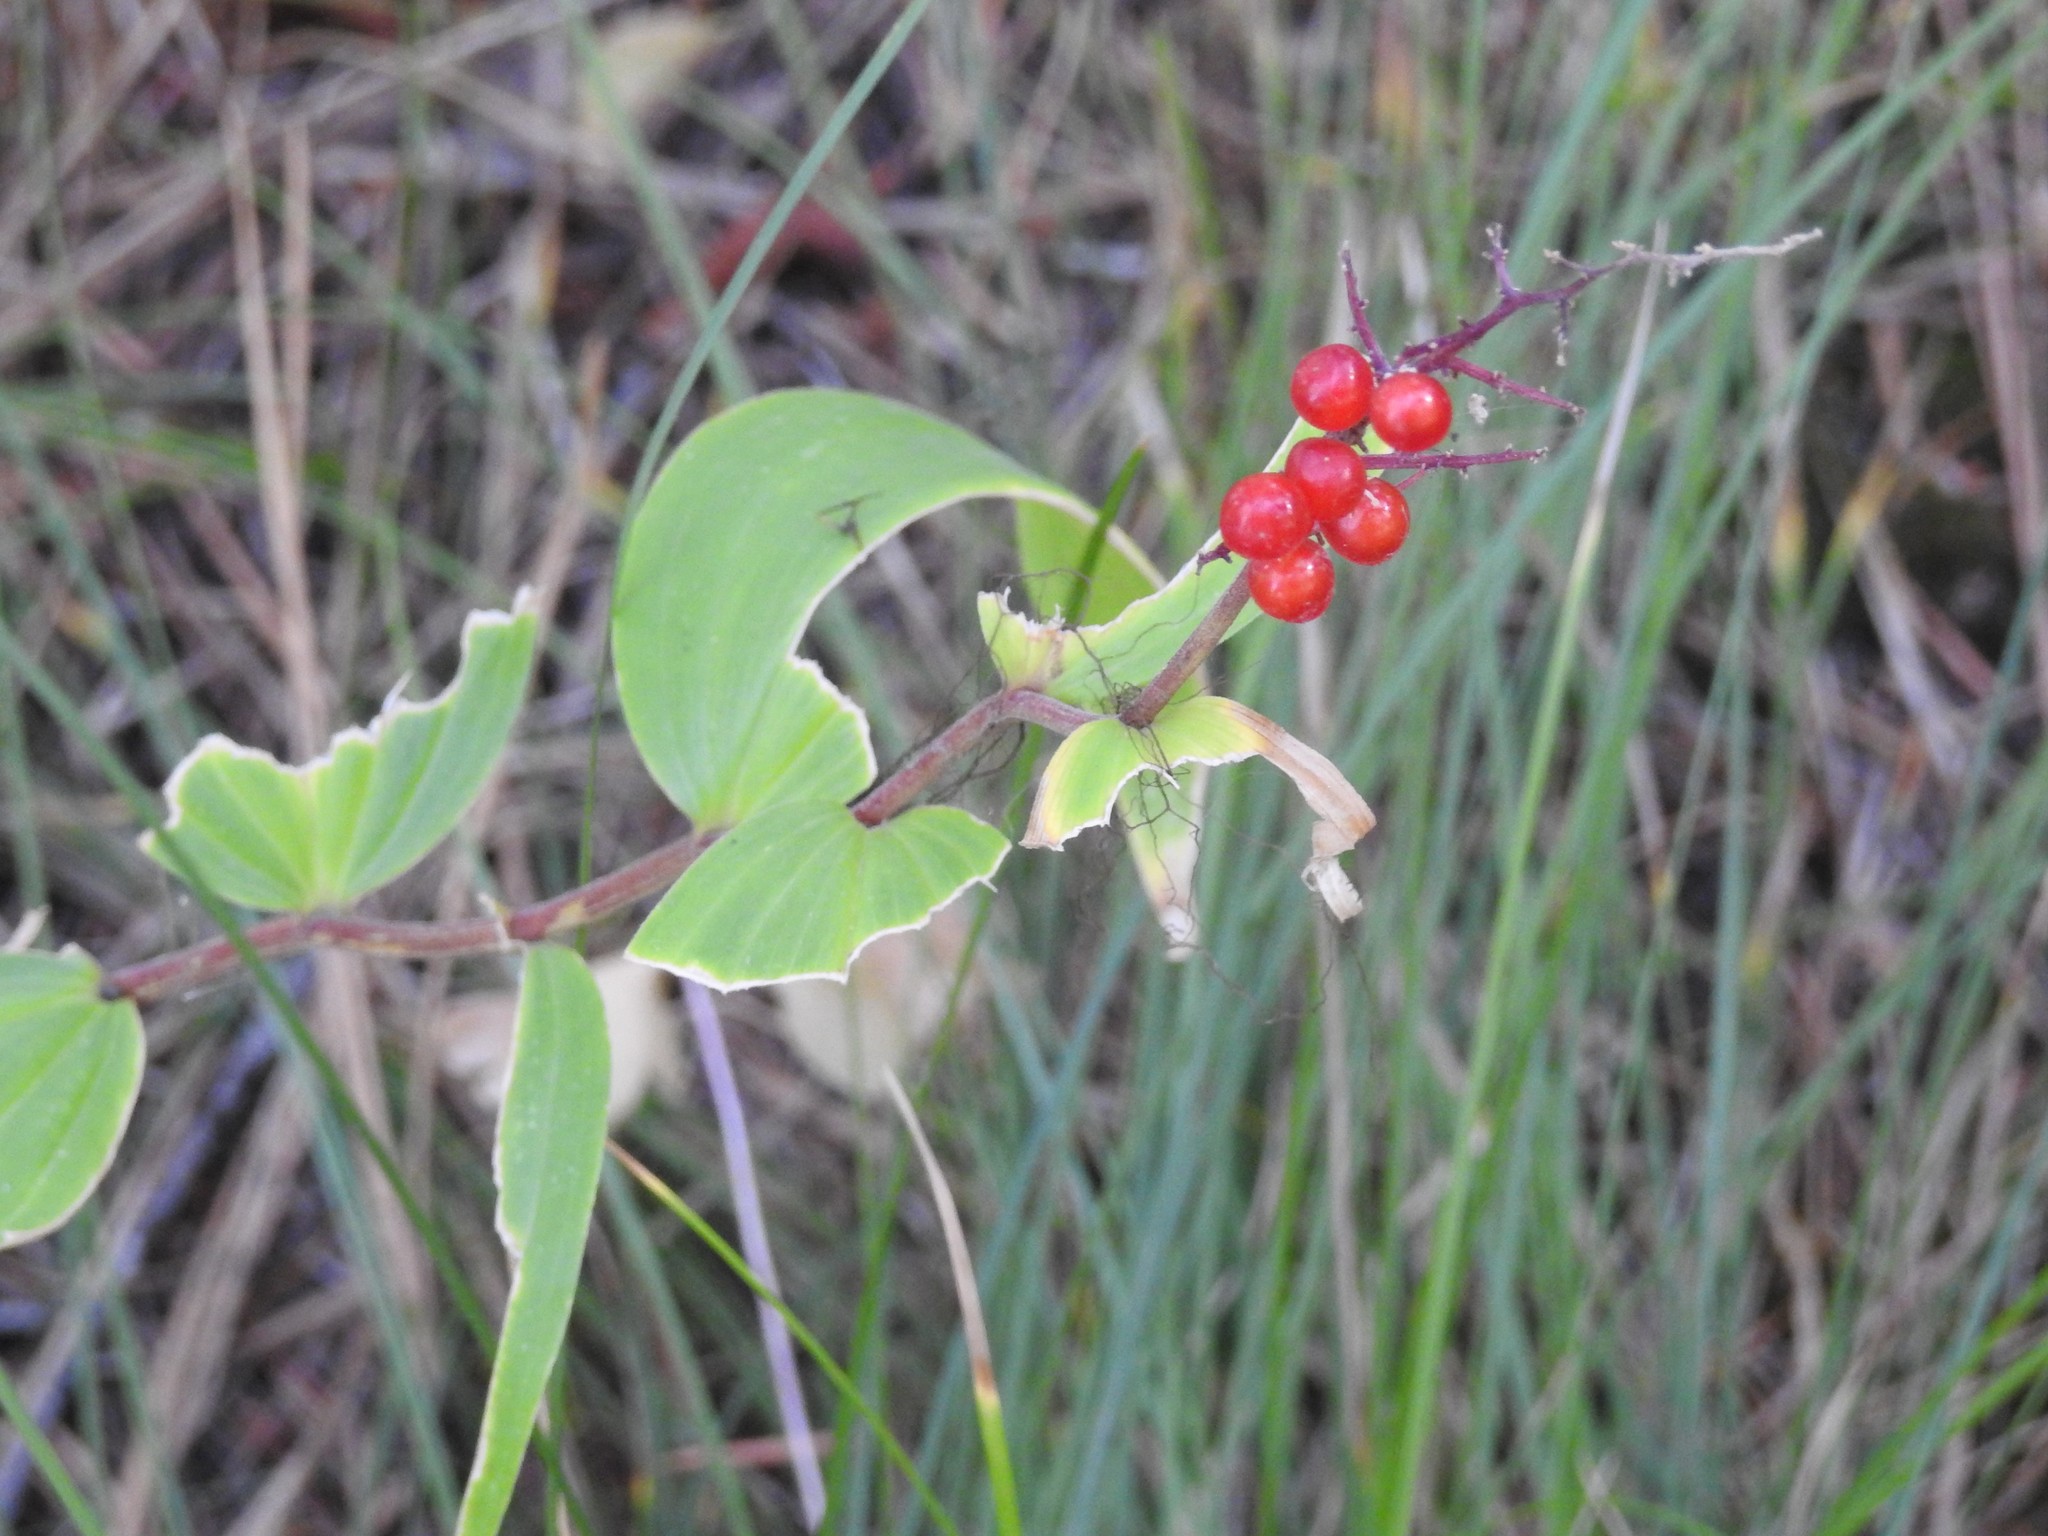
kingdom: Plantae
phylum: Tracheophyta
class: Liliopsida
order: Asparagales
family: Asparagaceae
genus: Maianthemum
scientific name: Maianthemum racemosum
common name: False spikenard
